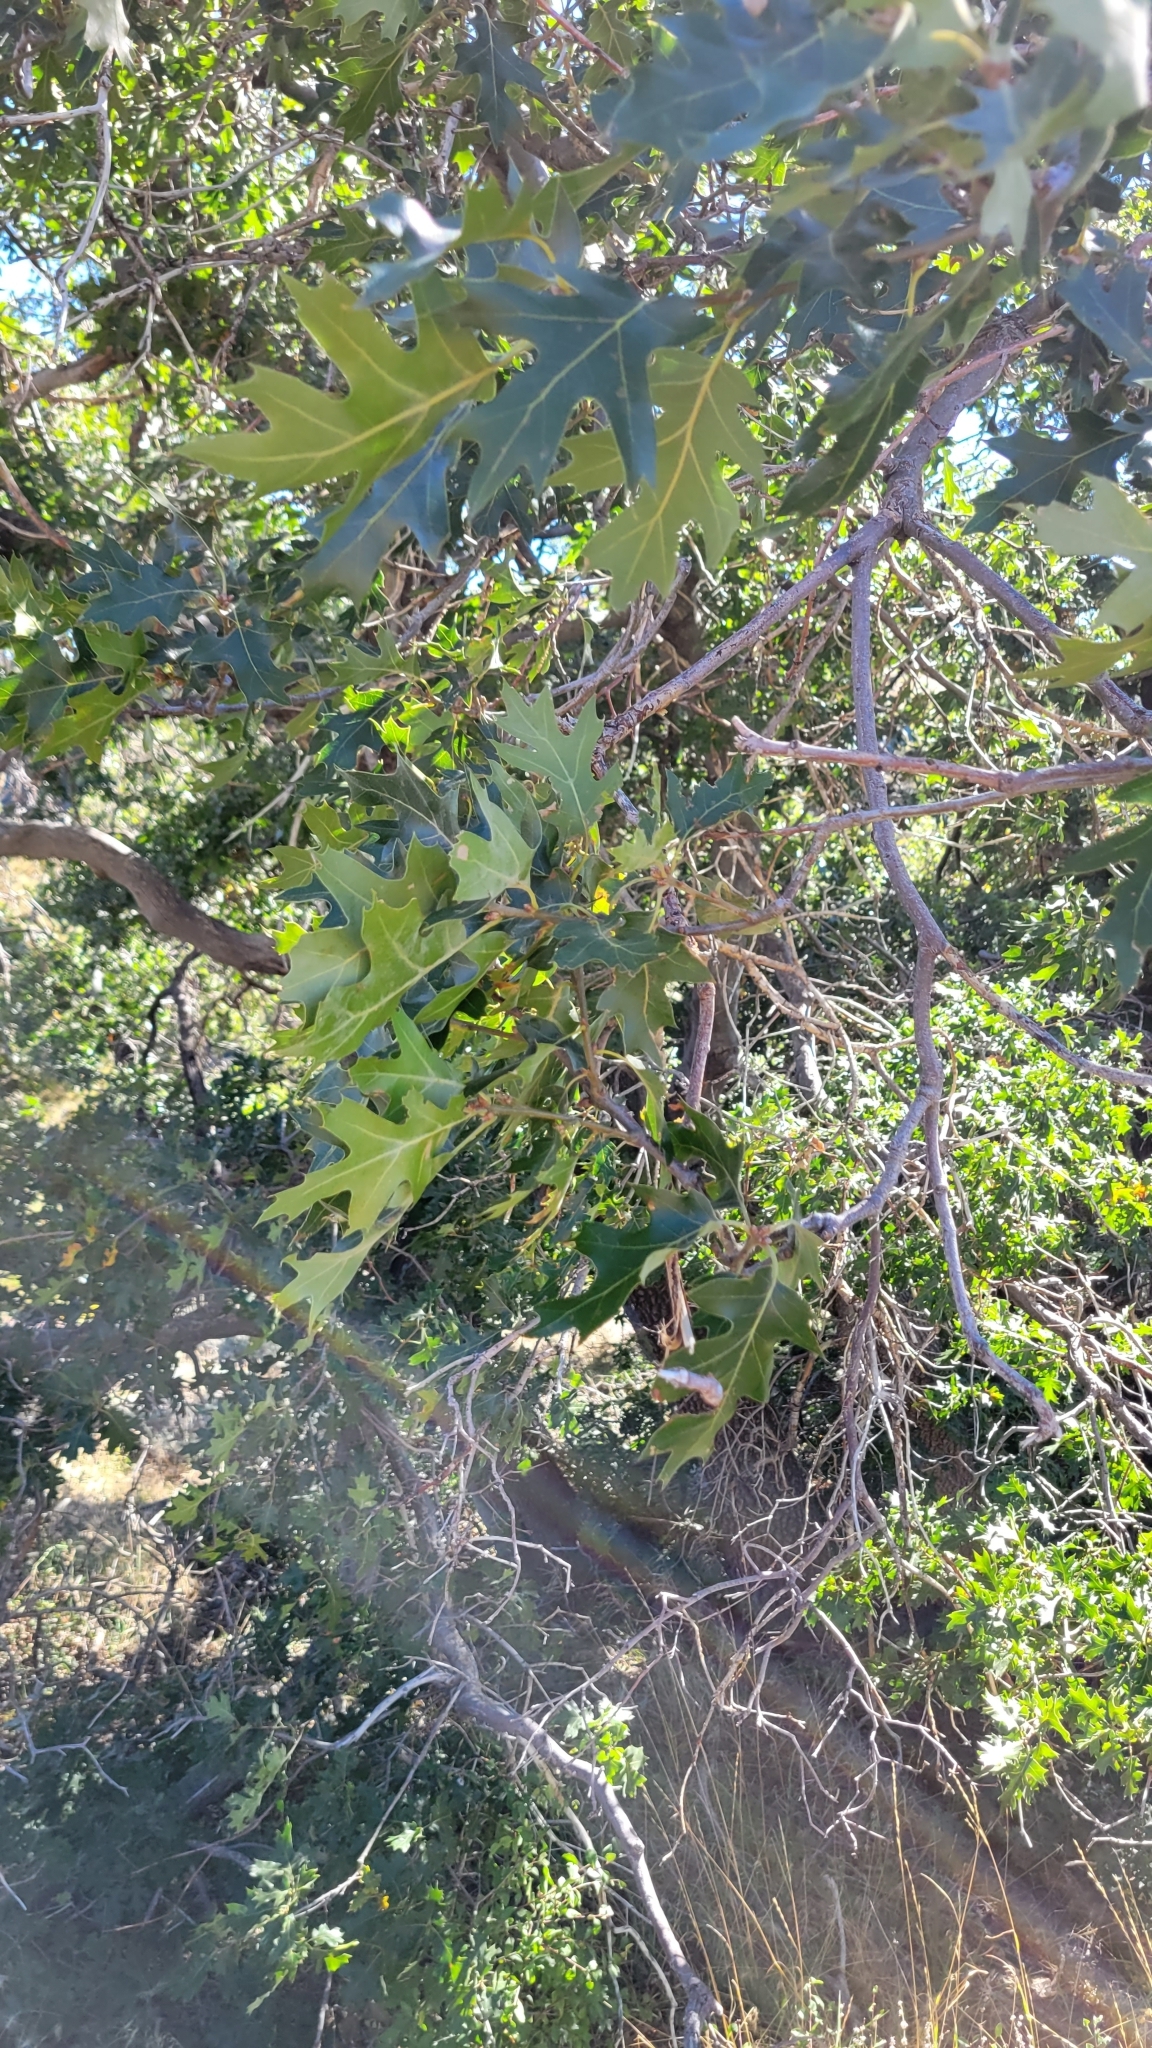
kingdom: Plantae
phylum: Tracheophyta
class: Magnoliopsida
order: Fagales
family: Fagaceae
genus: Quercus
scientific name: Quercus kelloggii
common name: California black oak
